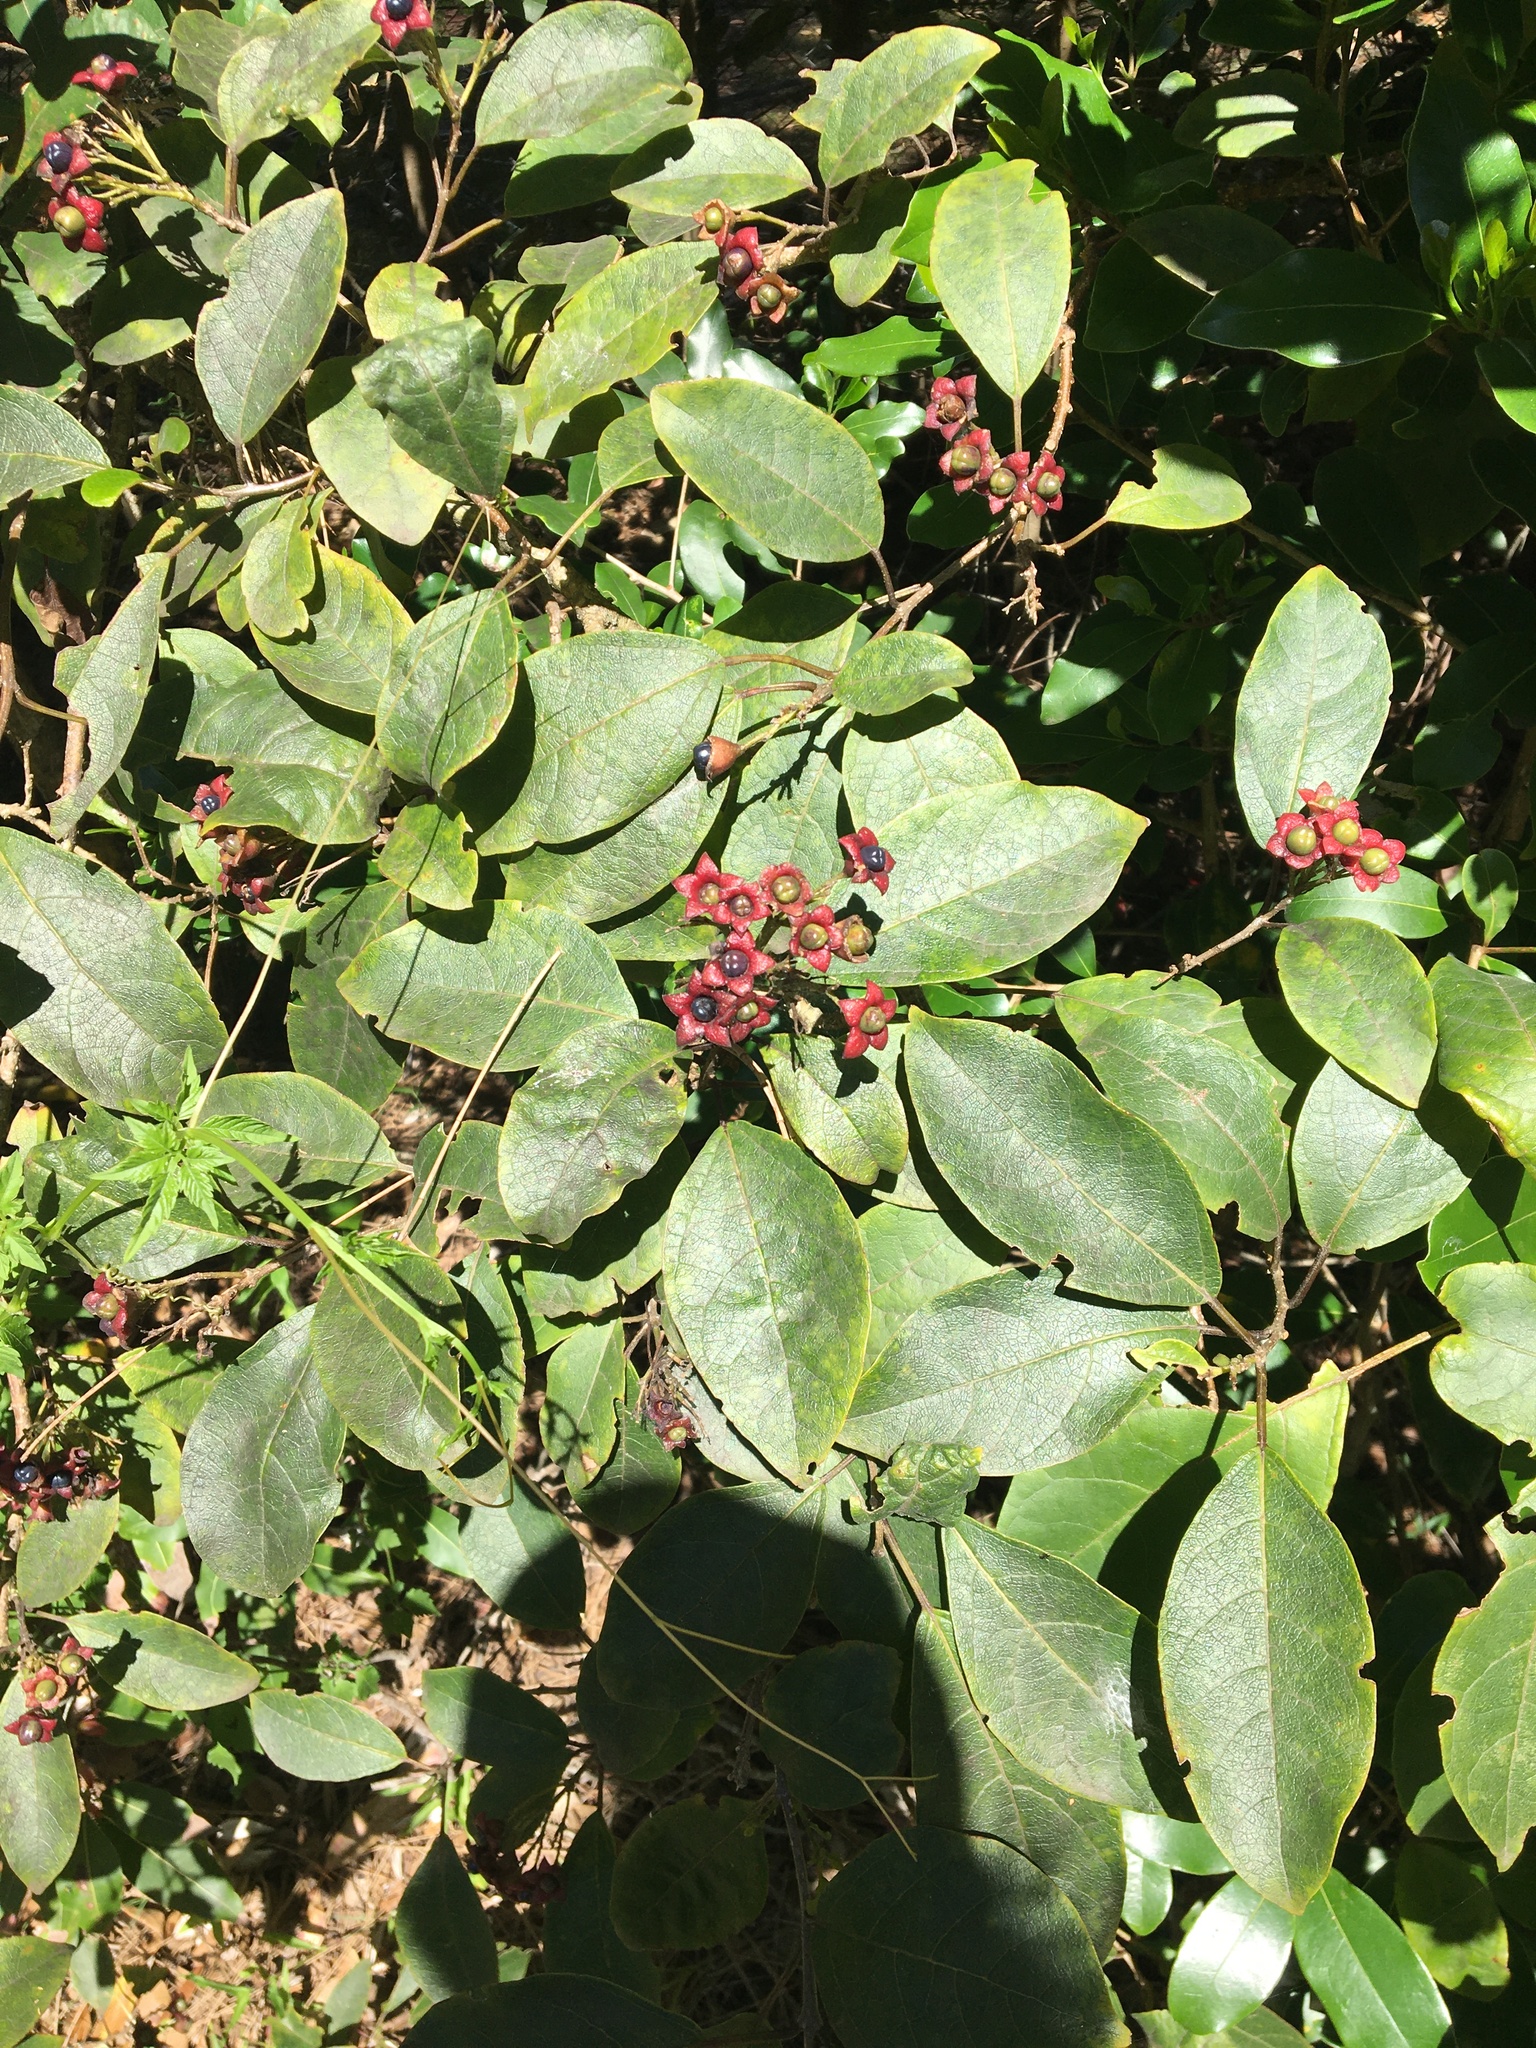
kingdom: Plantae
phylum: Tracheophyta
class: Magnoliopsida
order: Lamiales
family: Lamiaceae
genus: Clerodendrum
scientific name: Clerodendrum tomentosum
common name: Hairy clerodendrum
